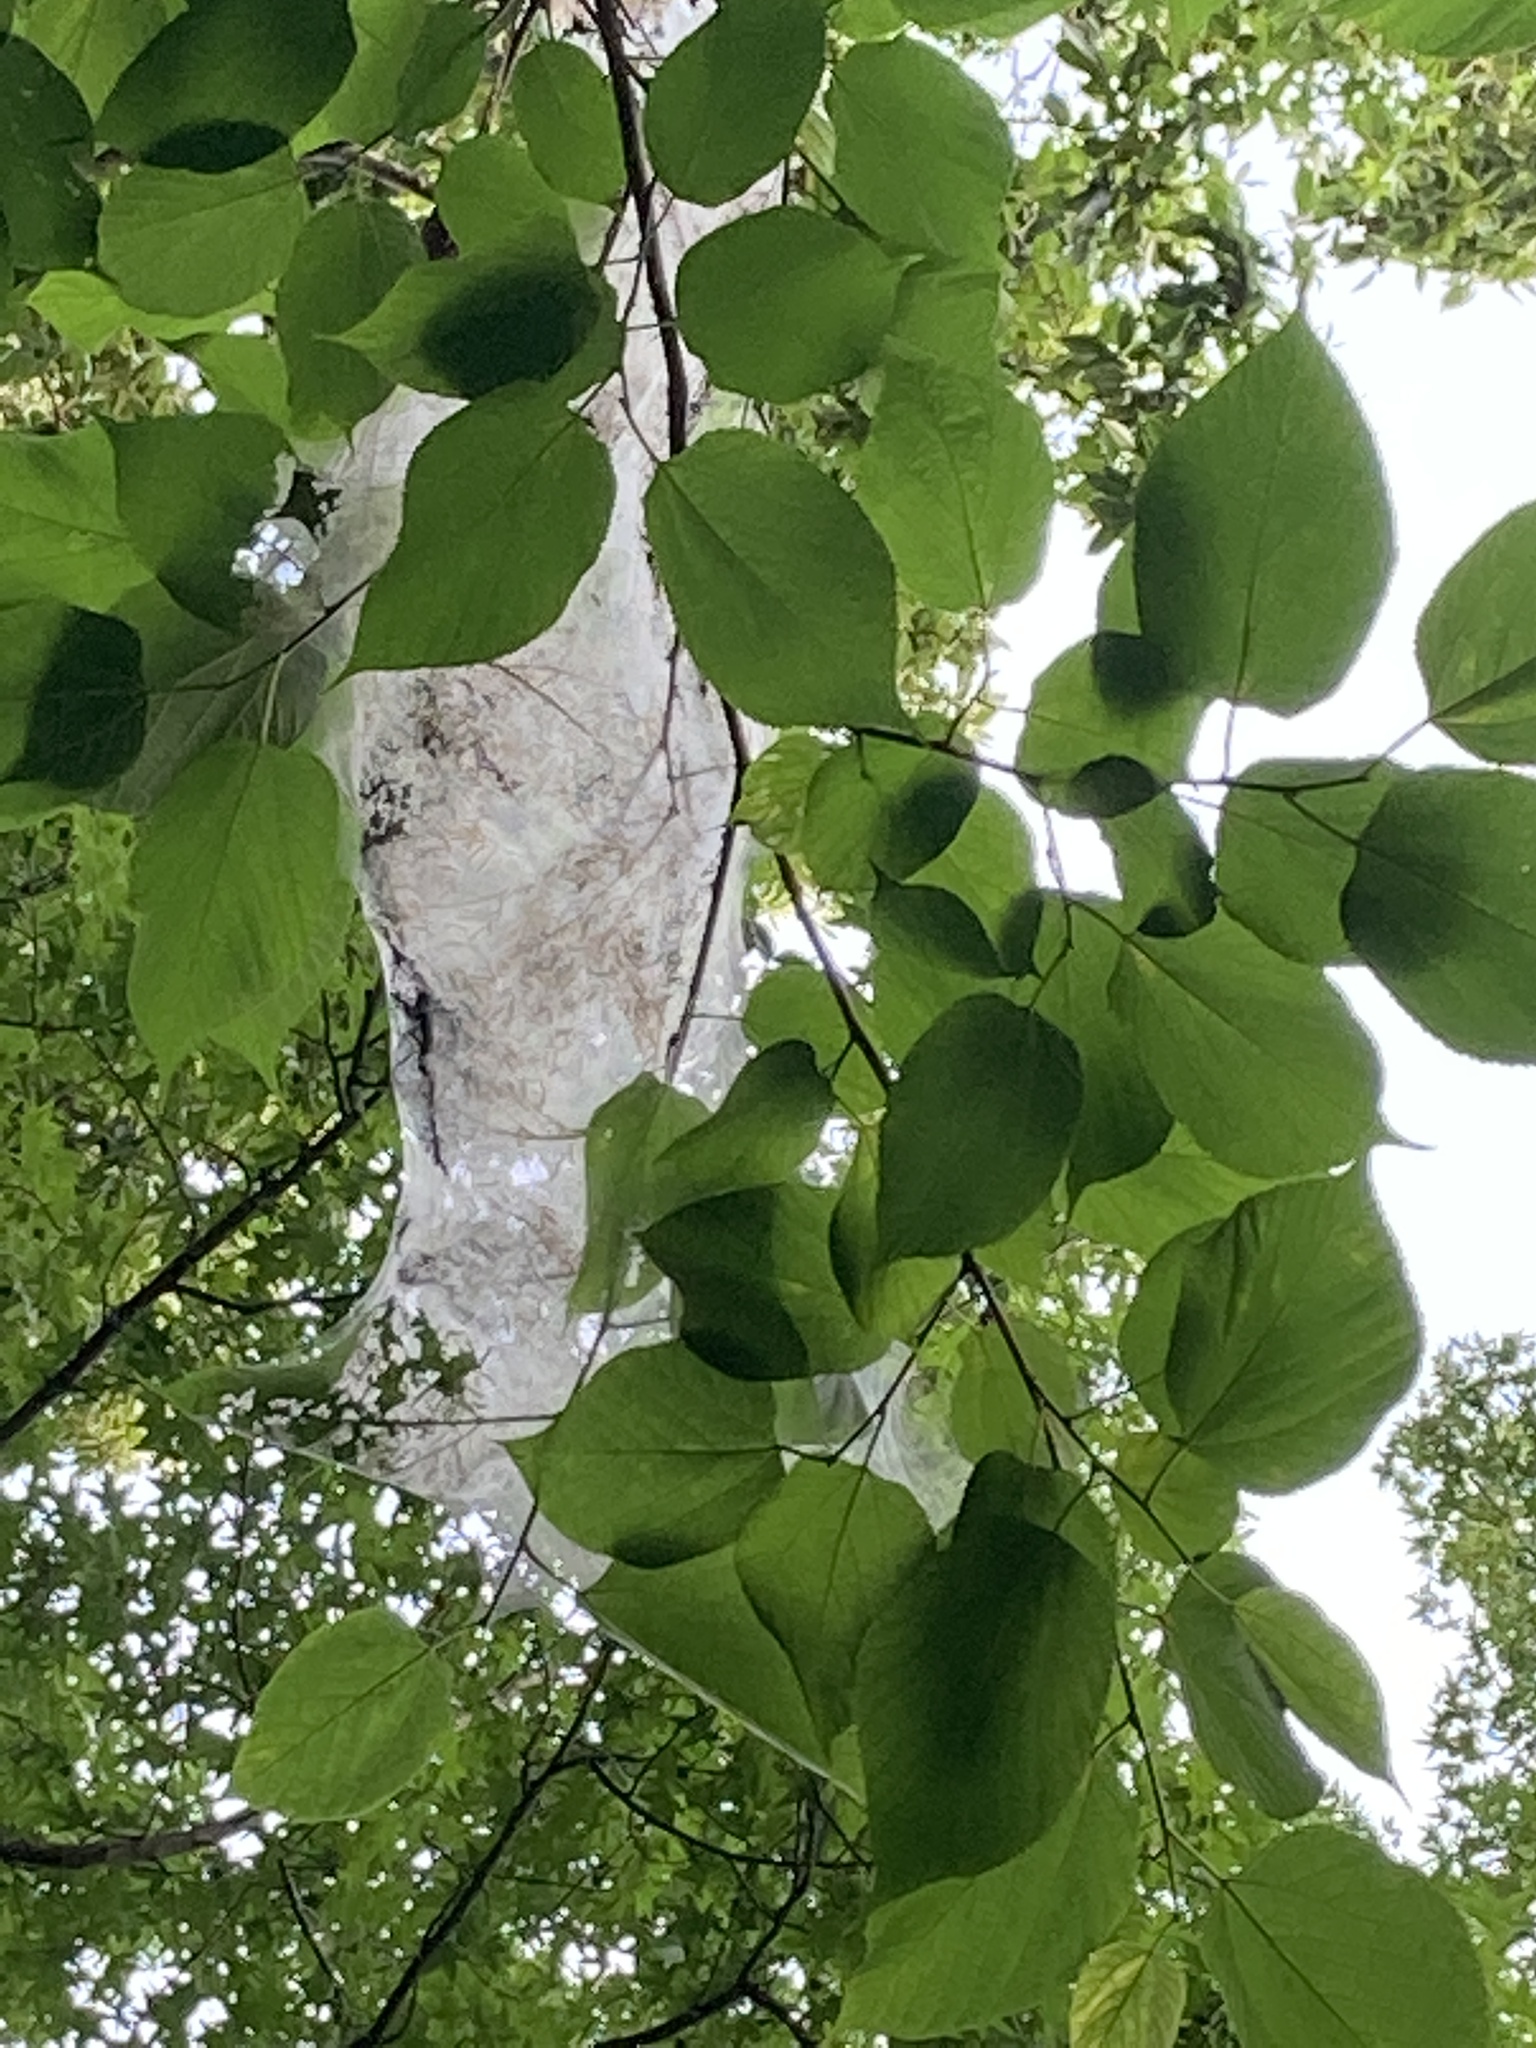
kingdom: Animalia
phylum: Arthropoda
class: Insecta
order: Lepidoptera
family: Erebidae
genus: Hyphantria
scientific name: Hyphantria cunea
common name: American white moth
